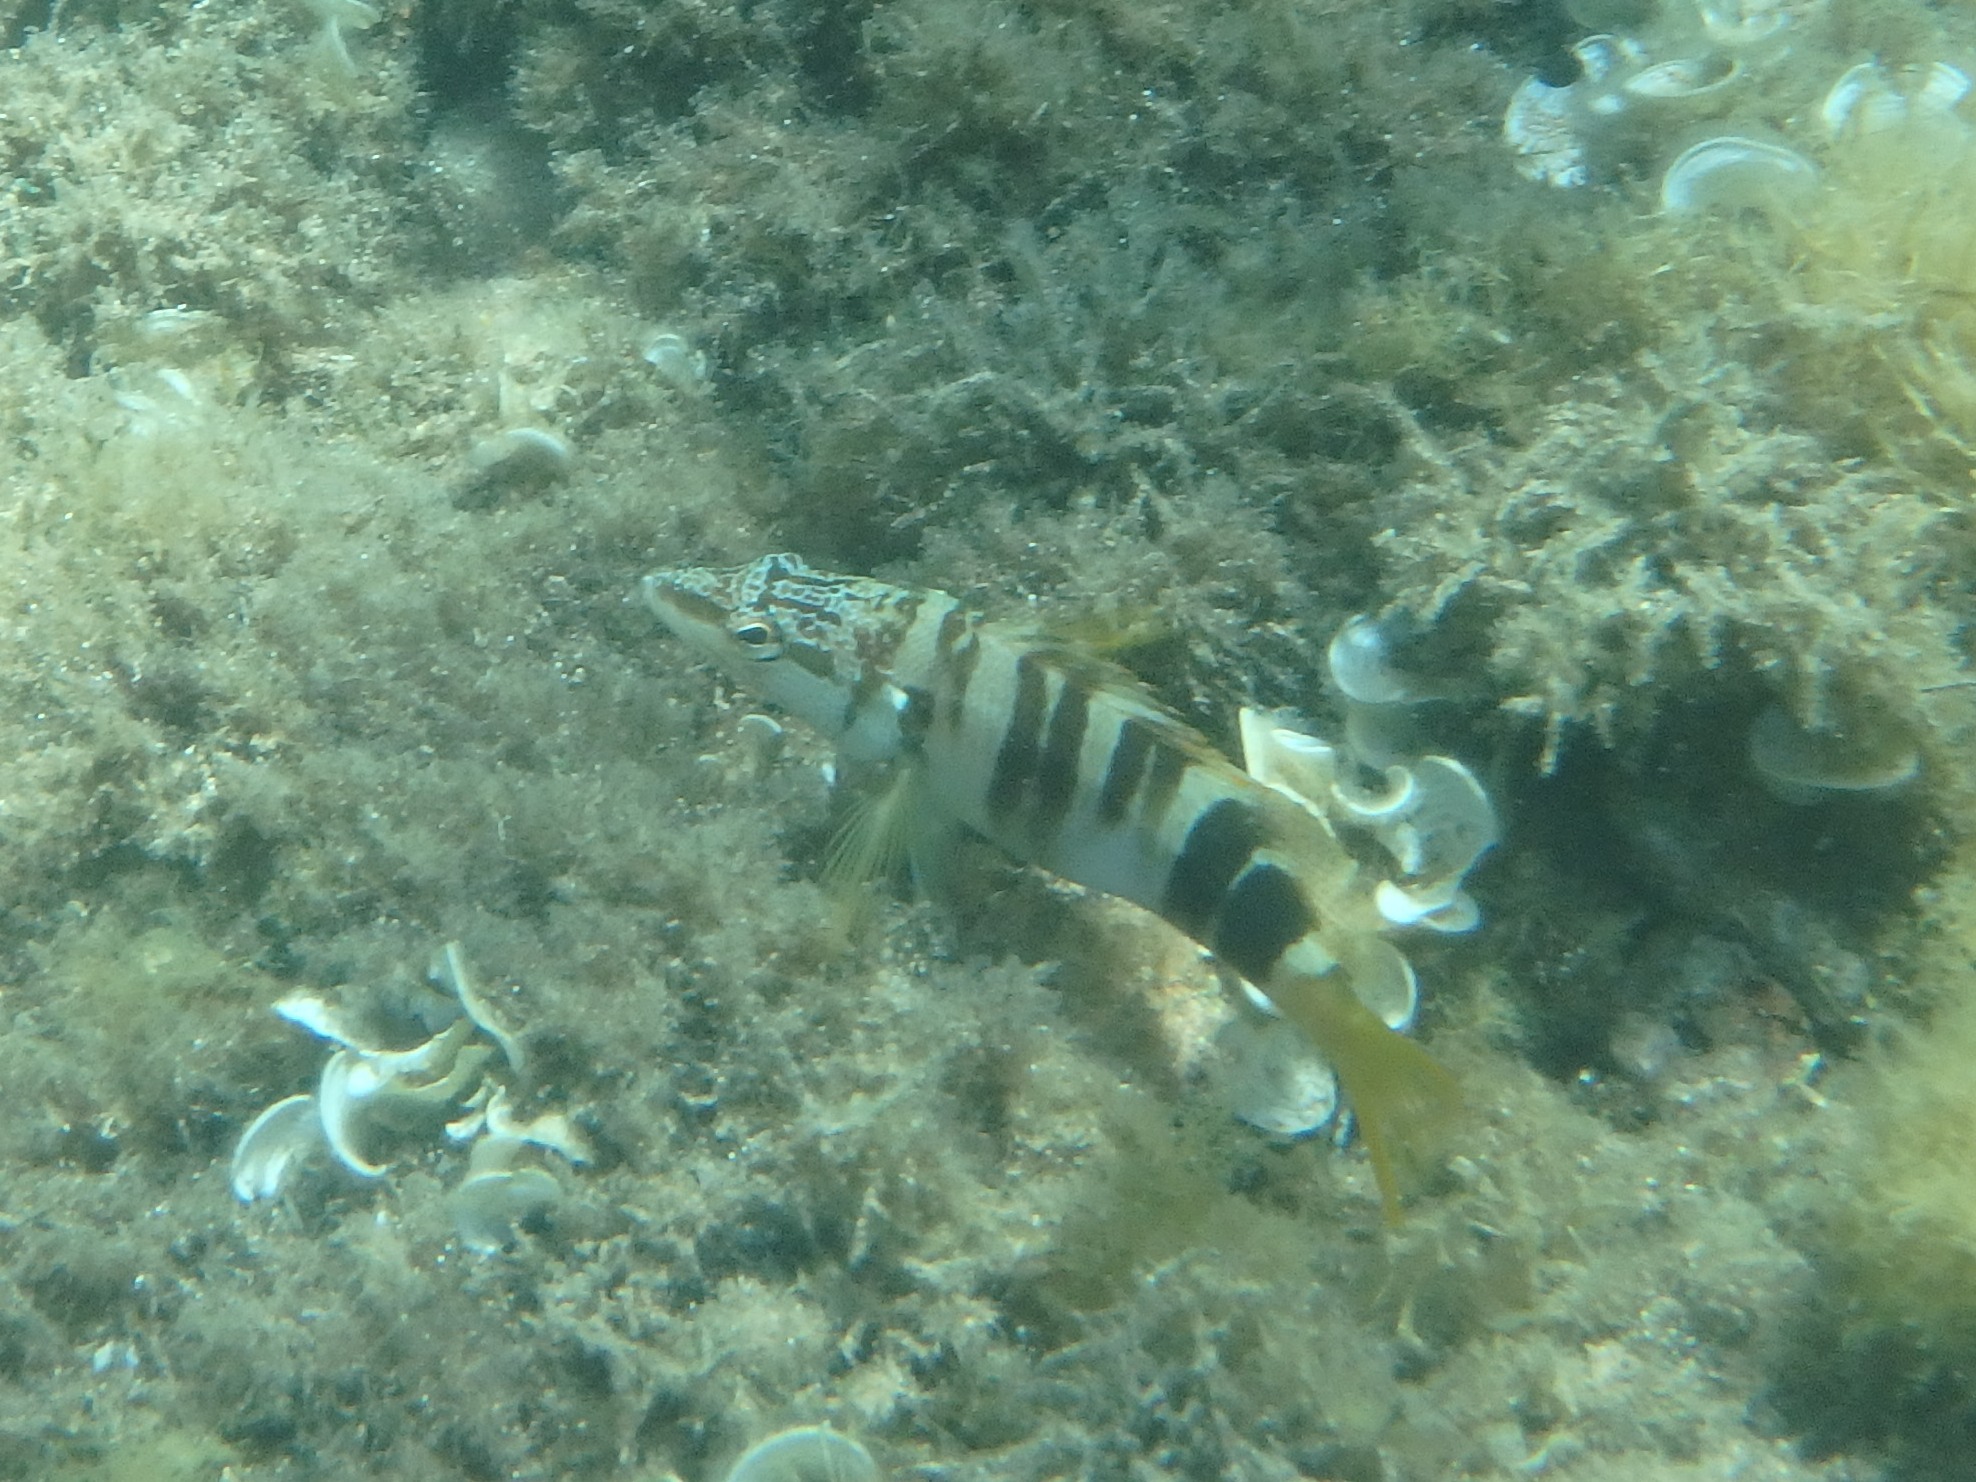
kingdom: Animalia
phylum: Chordata
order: Perciformes
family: Serranidae
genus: Serranus
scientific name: Serranus scriba
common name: Painted comber
